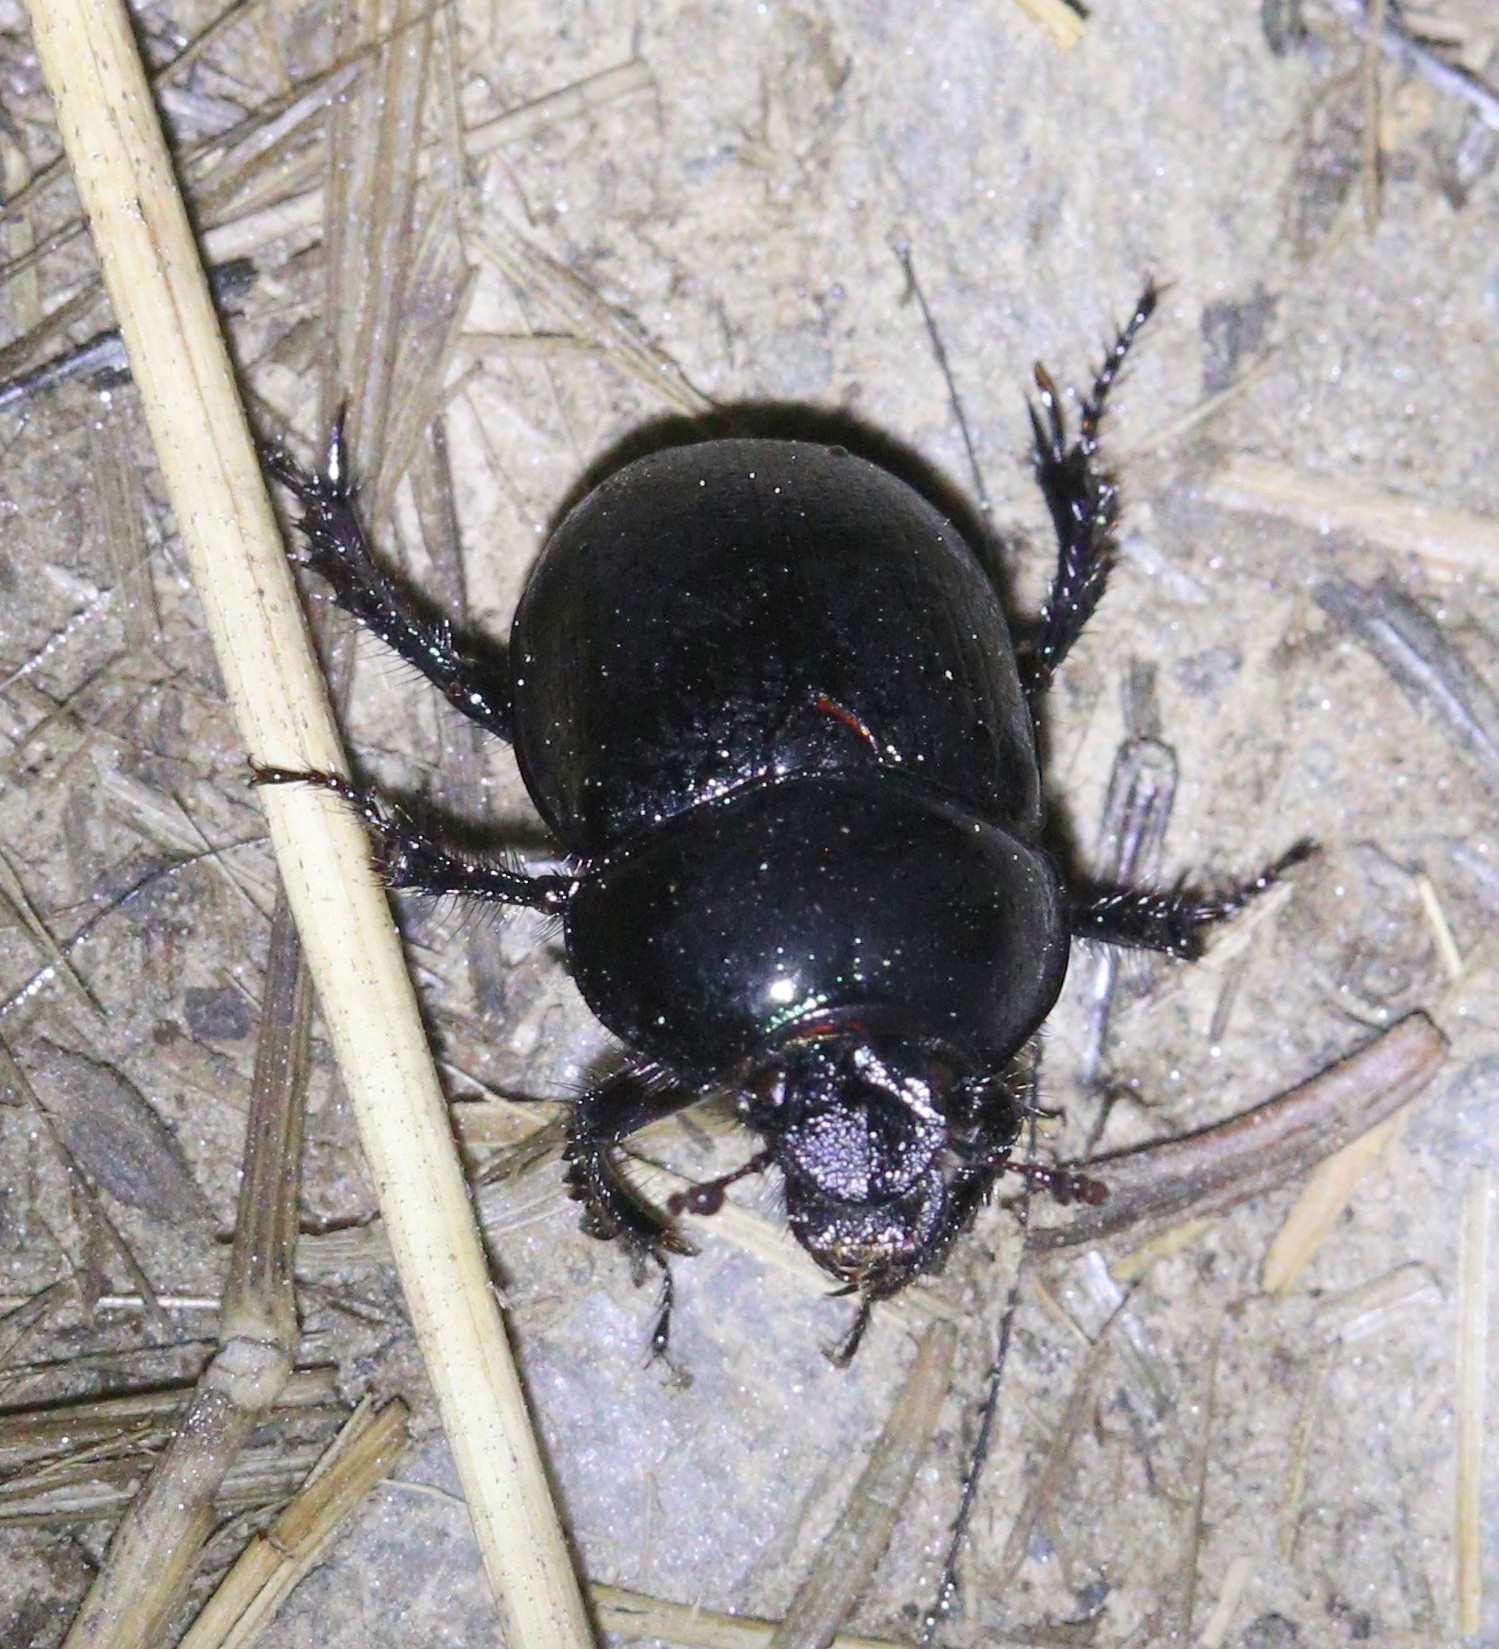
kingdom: Animalia
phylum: Arthropoda
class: Insecta
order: Coleoptera
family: Geotrupidae
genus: Anoplotrupes
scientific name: Anoplotrupes stercorosus
